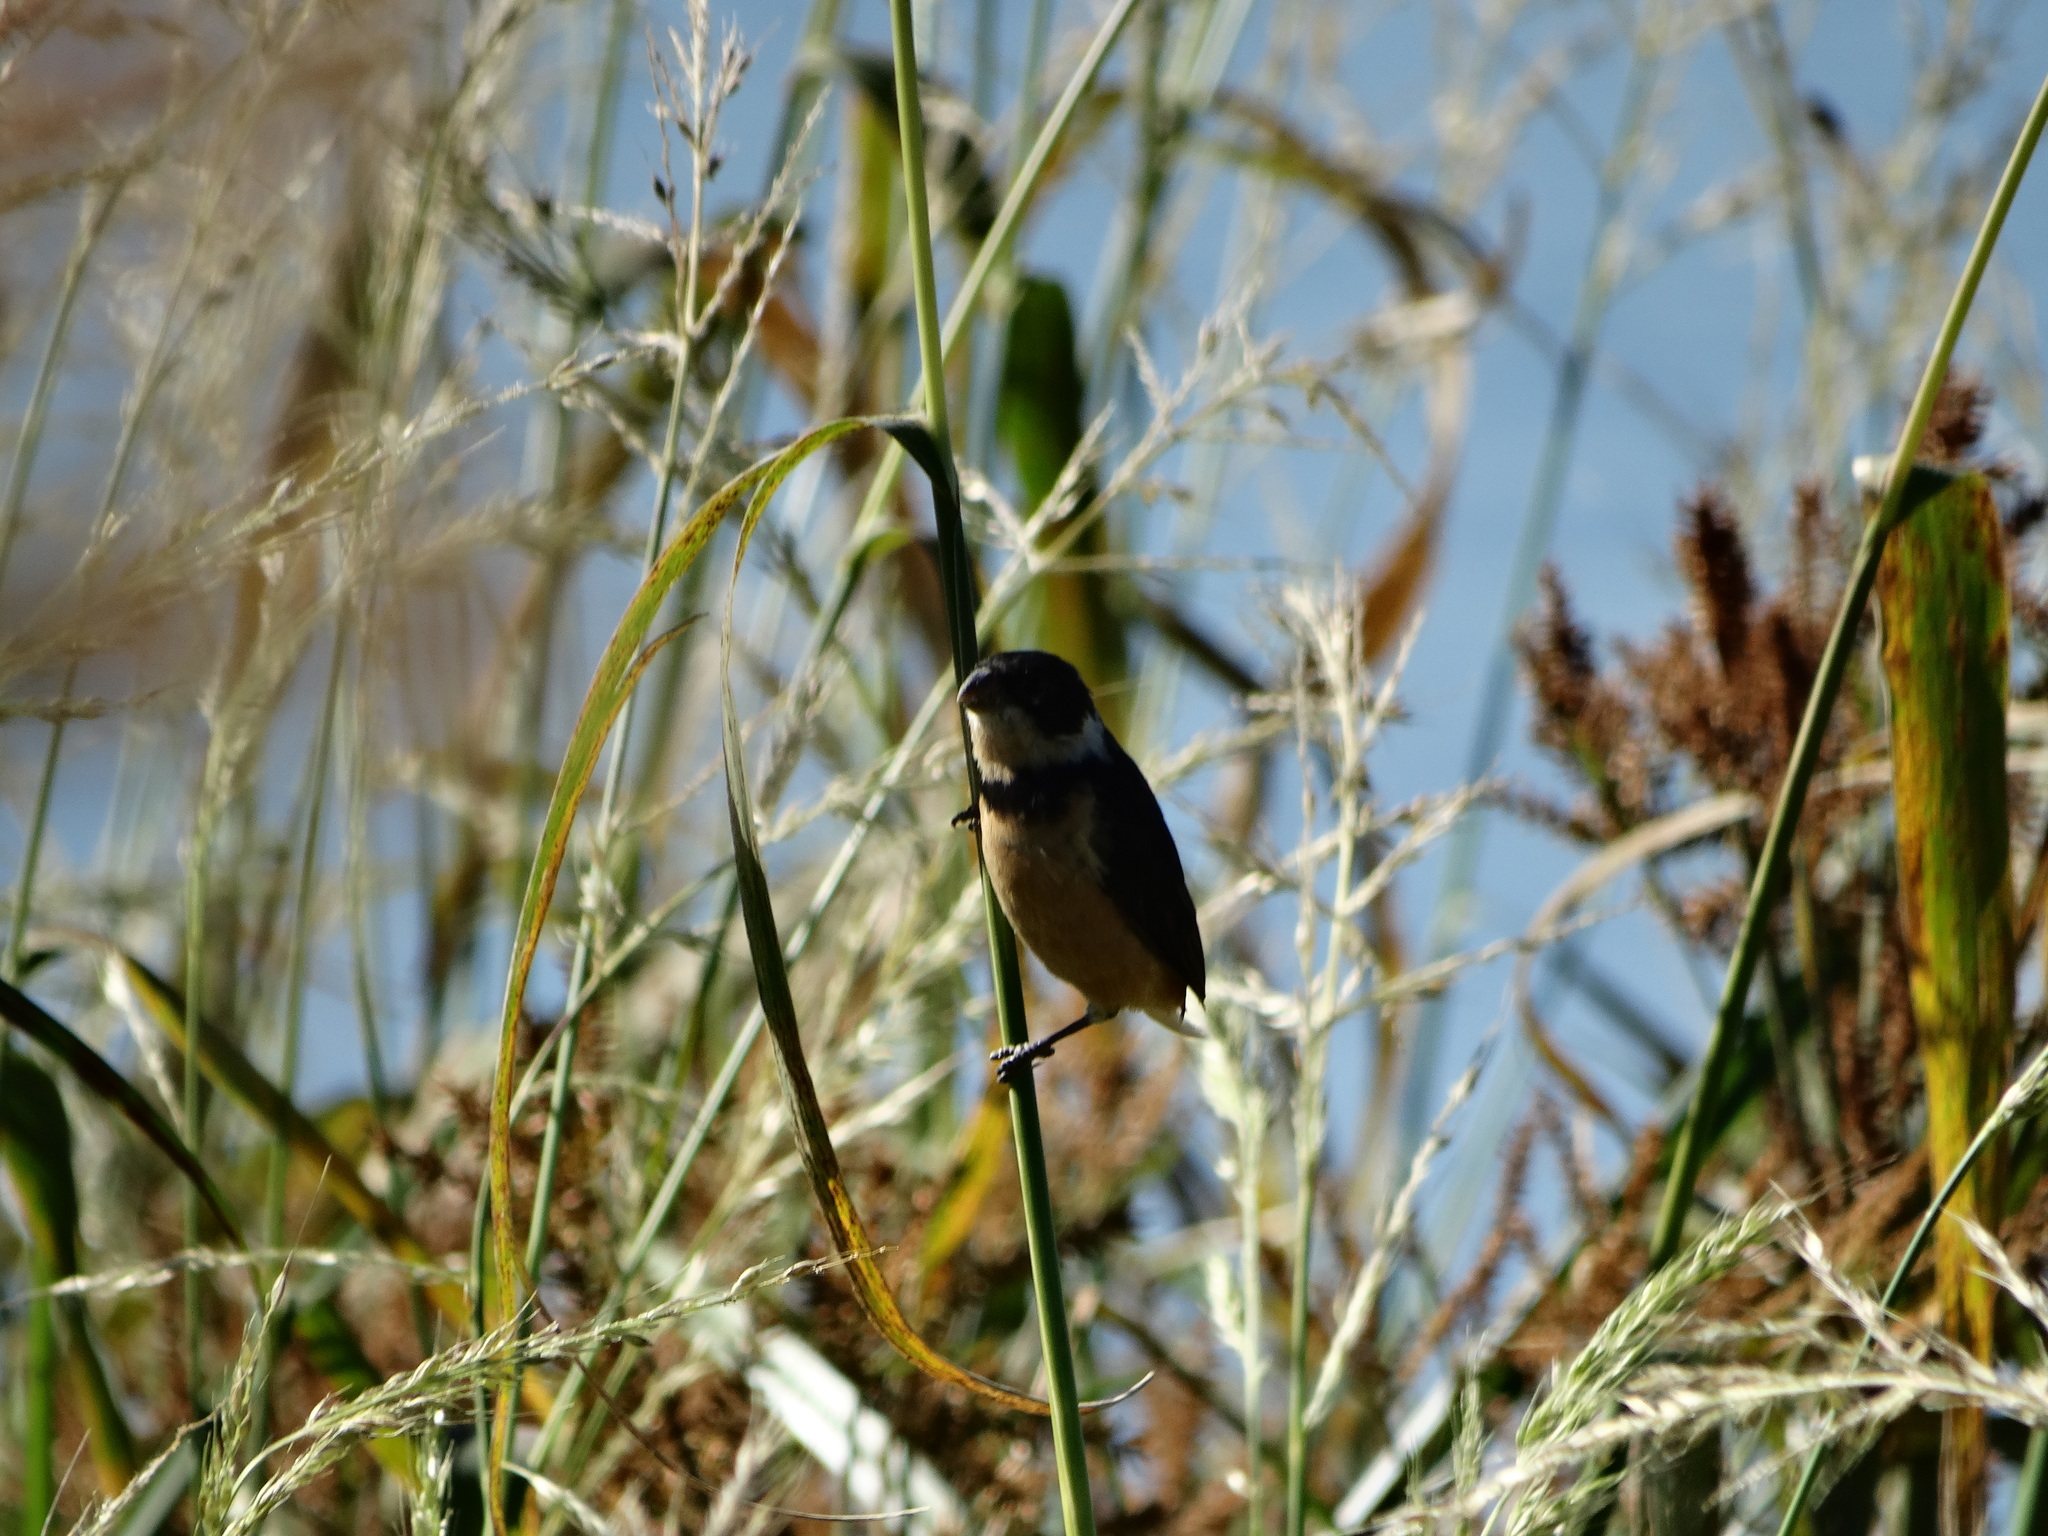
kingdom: Animalia
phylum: Chordata
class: Aves
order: Passeriformes
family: Thraupidae
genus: Sporophila
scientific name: Sporophila torqueola
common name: White-collared seedeater
